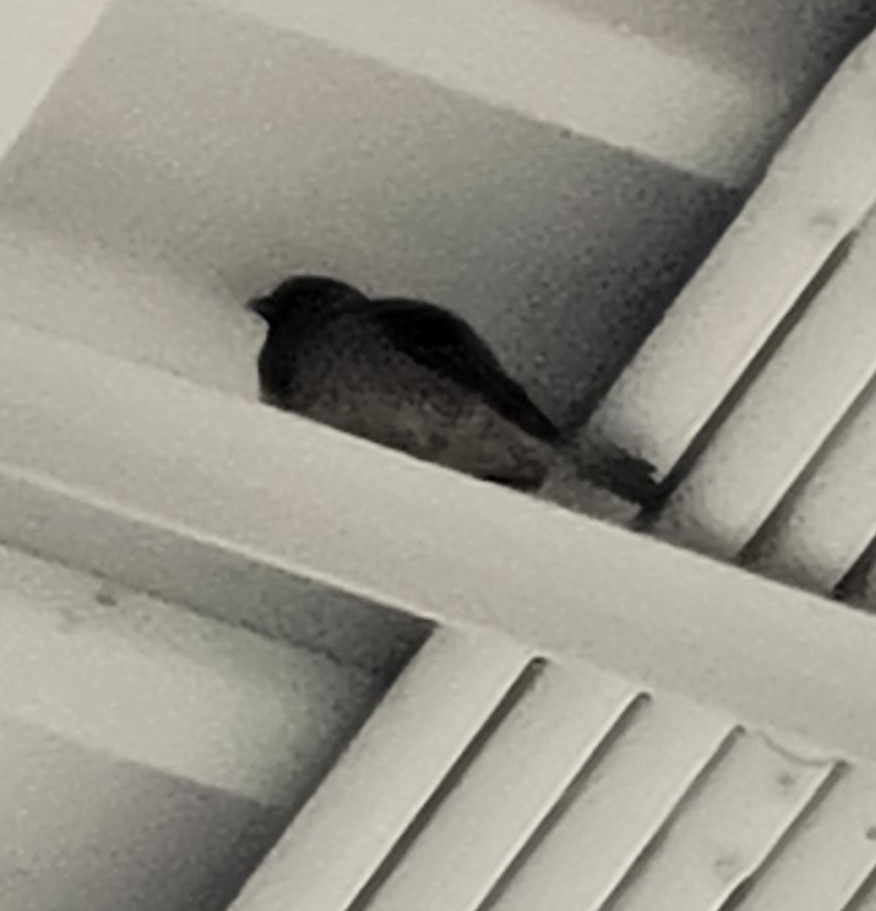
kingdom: Animalia
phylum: Chordata
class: Aves
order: Passeriformes
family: Passeridae
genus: Passer
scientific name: Passer domesticus
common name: House sparrow
